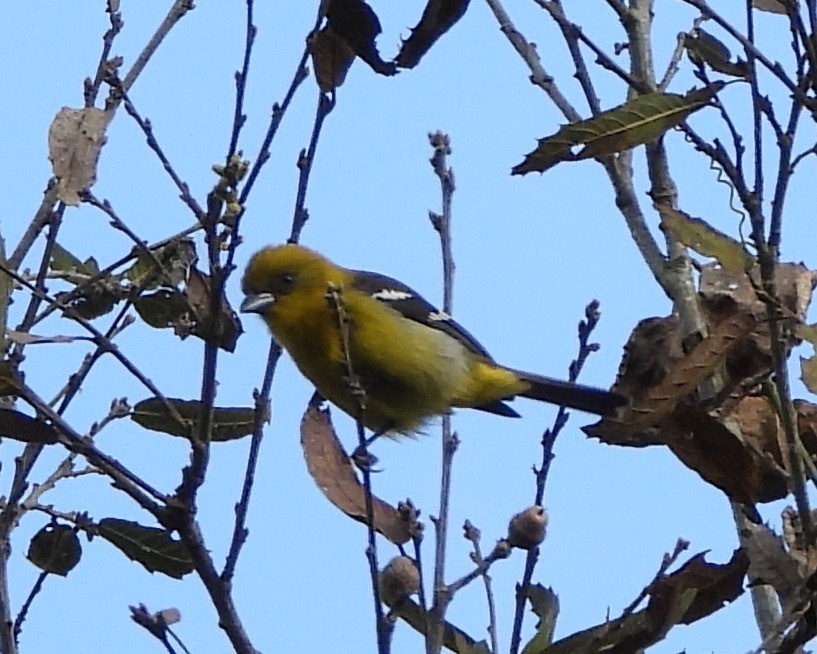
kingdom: Animalia
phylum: Chordata
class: Aves
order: Passeriformes
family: Cardinalidae
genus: Piranga
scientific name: Piranga leucoptera
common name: White-winged tanager
